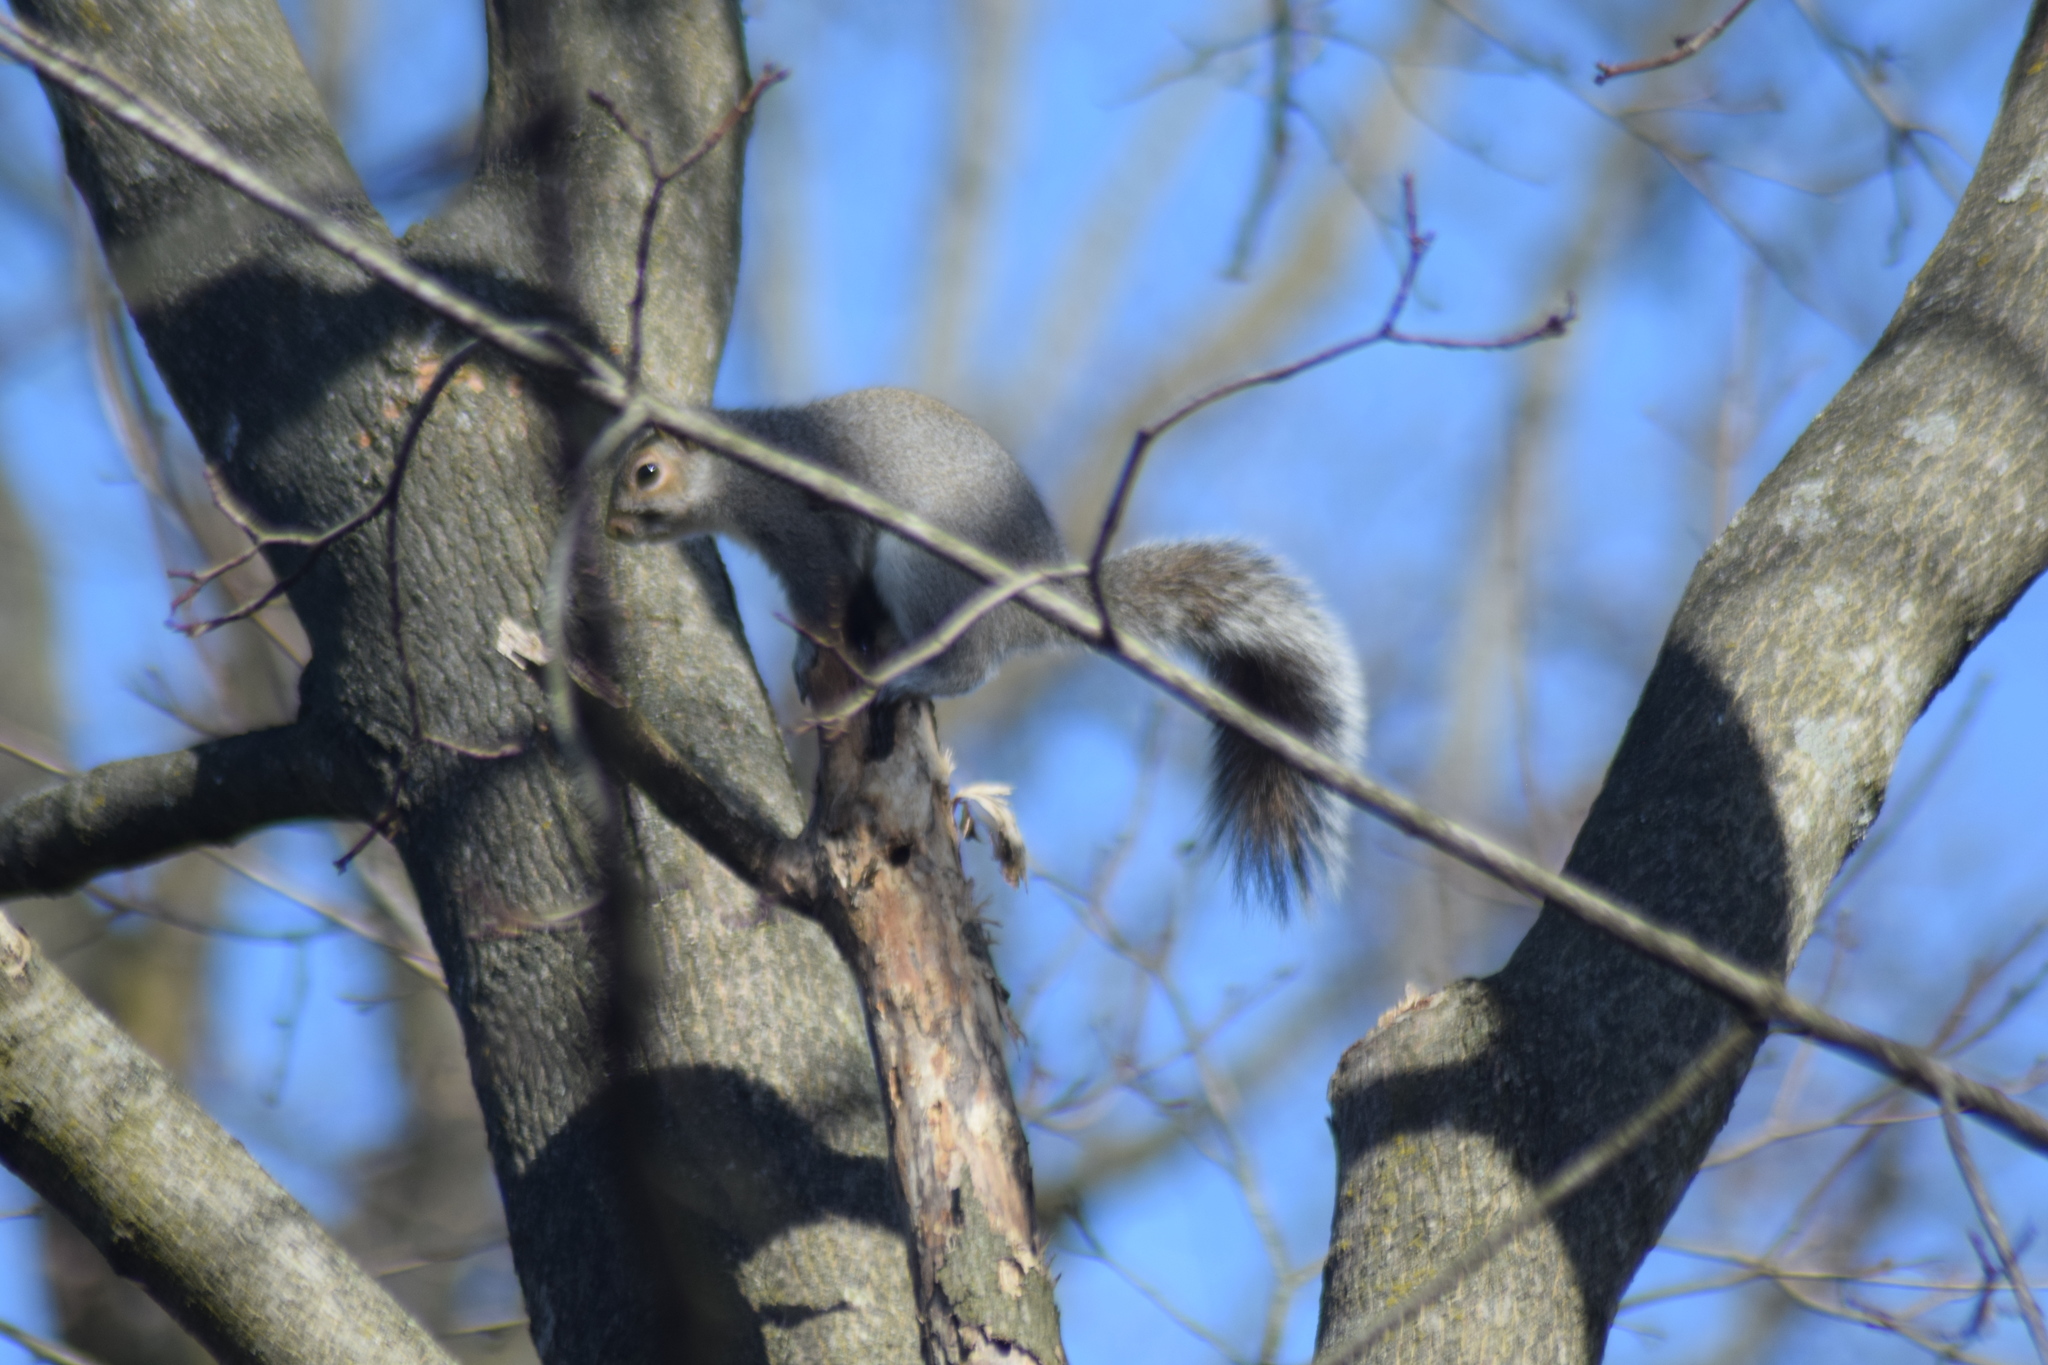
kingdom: Animalia
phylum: Chordata
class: Mammalia
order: Rodentia
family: Sciuridae
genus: Sciurus
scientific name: Sciurus carolinensis
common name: Eastern gray squirrel
